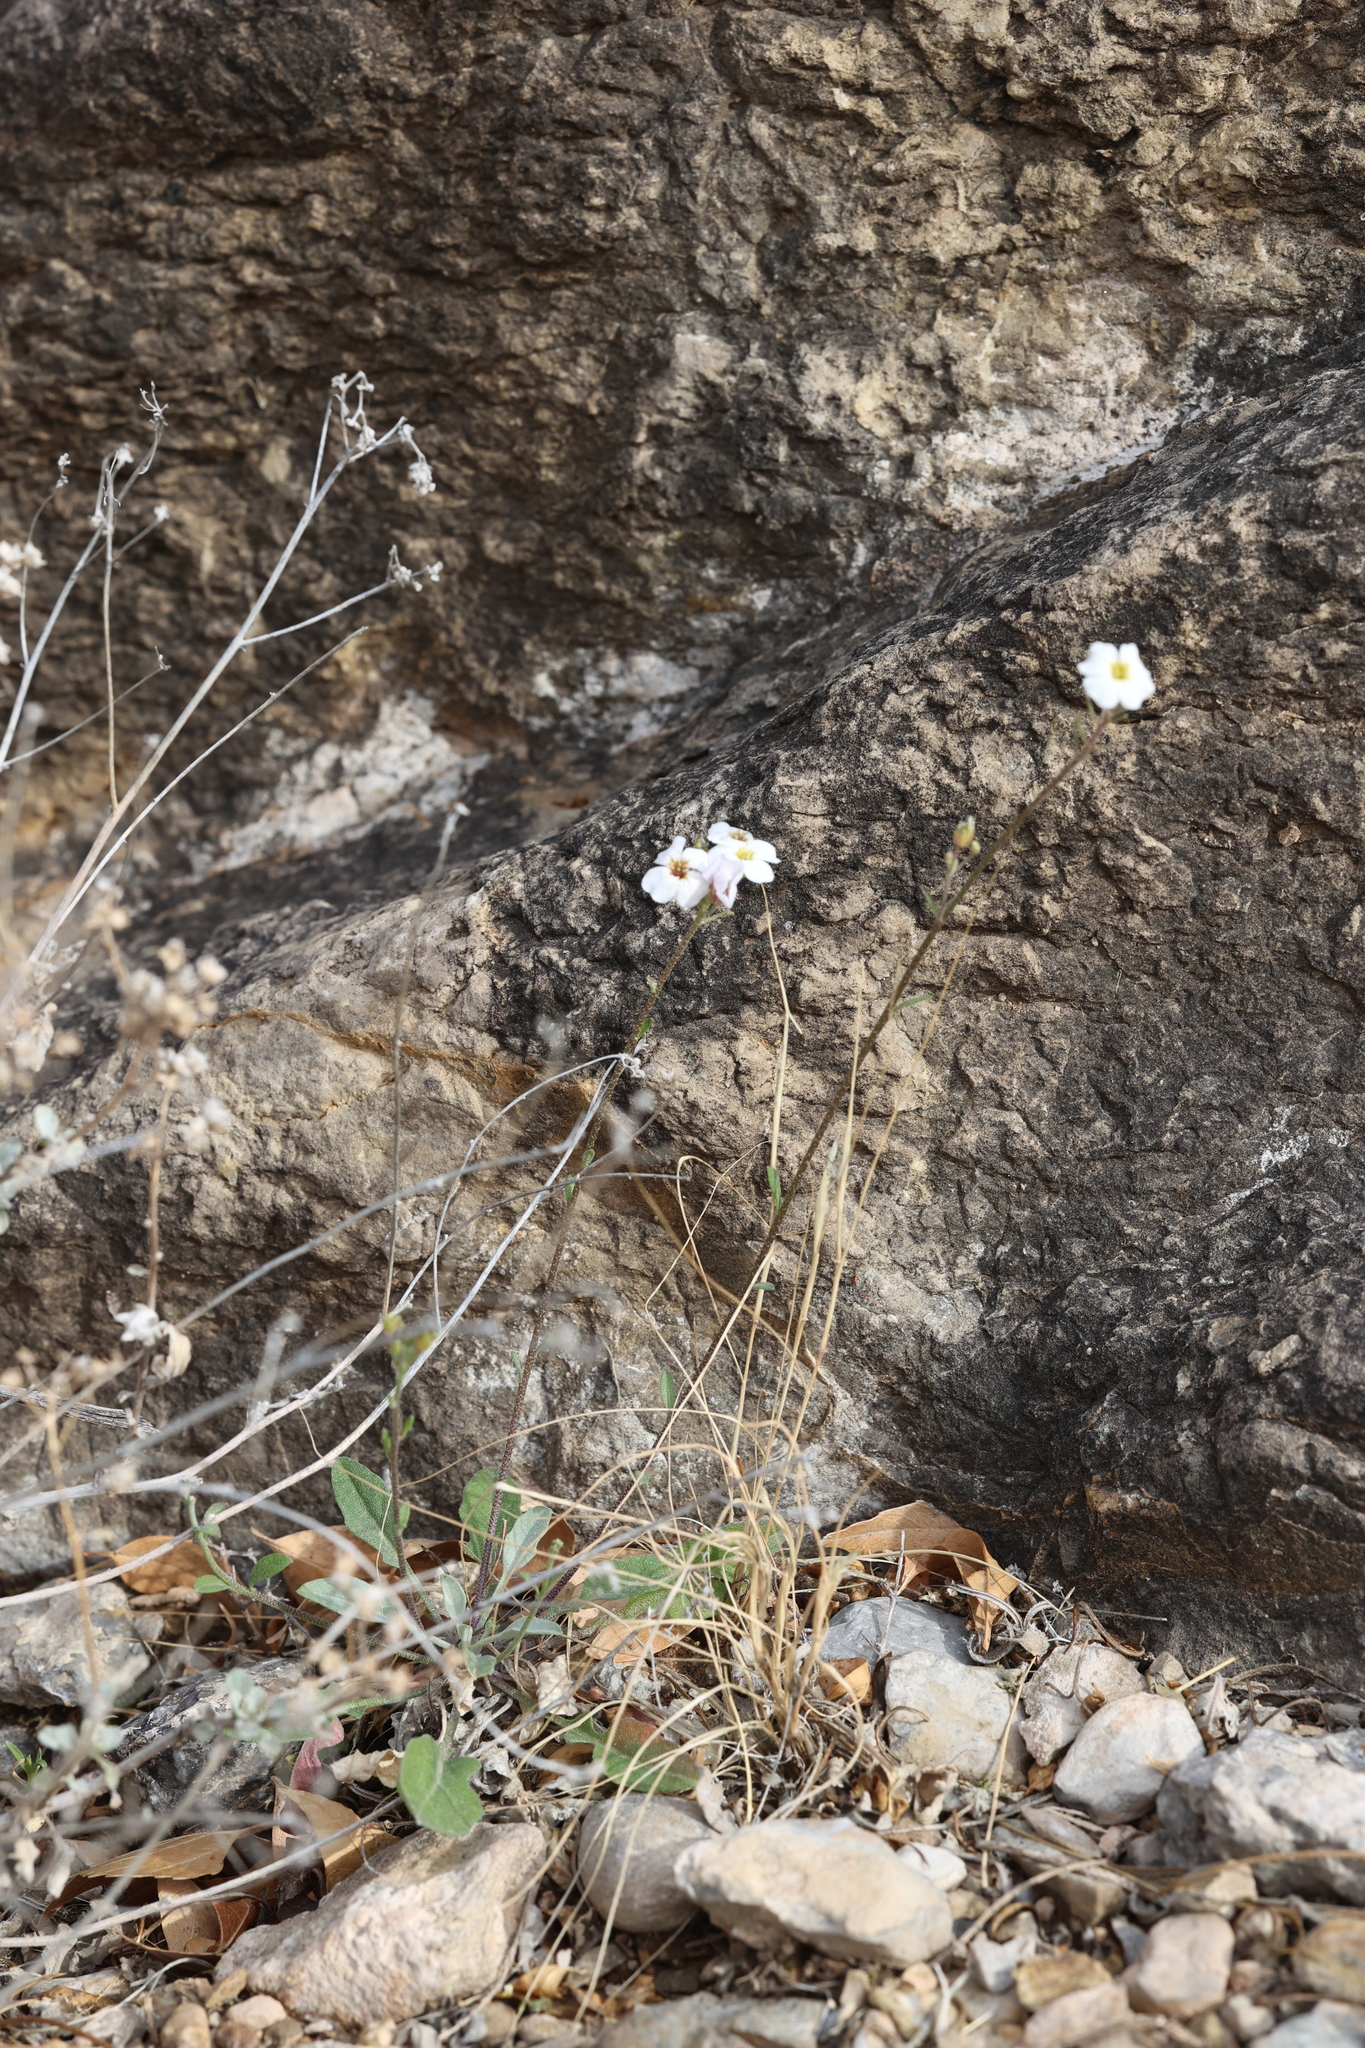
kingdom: Plantae
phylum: Tracheophyta
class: Magnoliopsida
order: Brassicales
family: Brassicaceae
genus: Physaria
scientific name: Physaria purpurea
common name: Rose bladderpod
